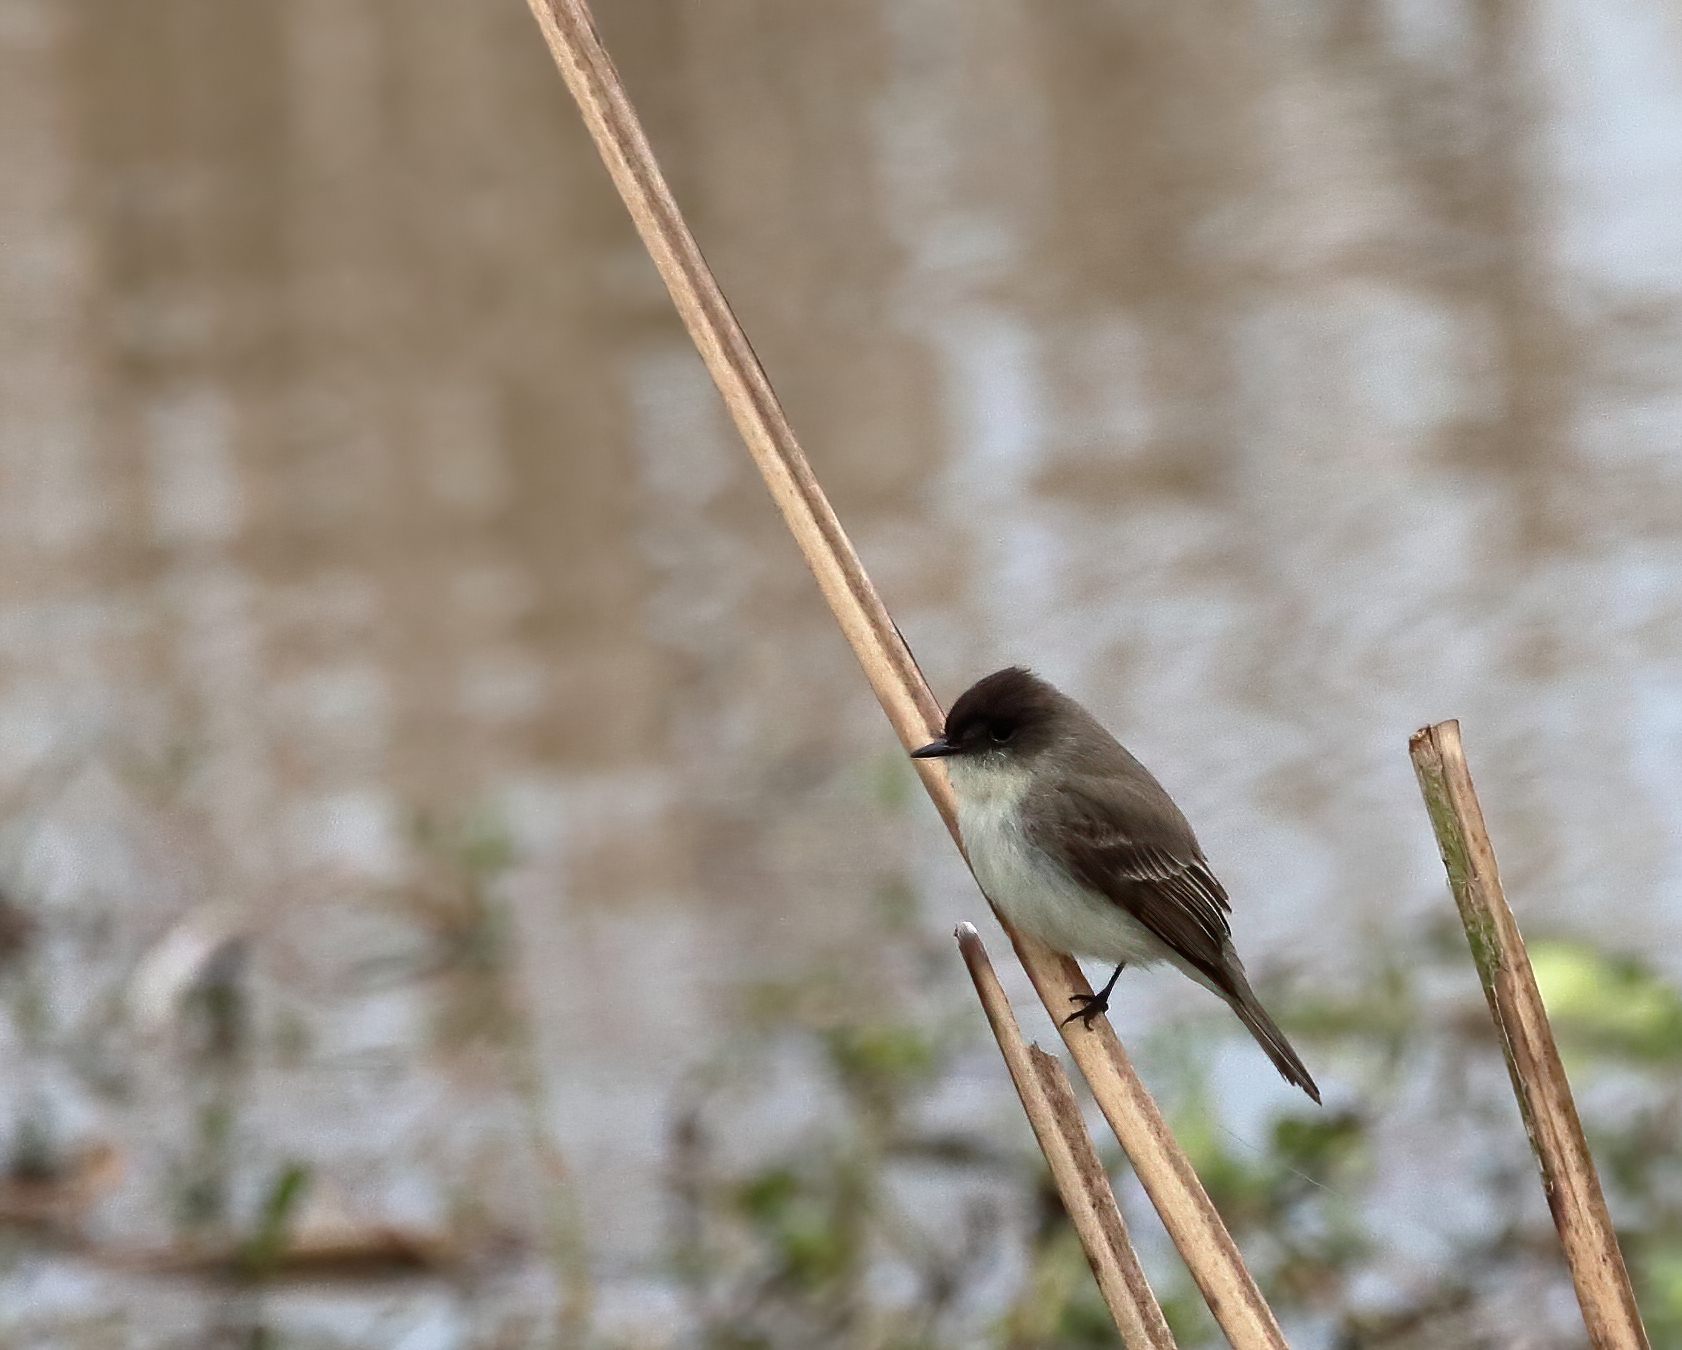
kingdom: Animalia
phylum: Chordata
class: Aves
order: Passeriformes
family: Tyrannidae
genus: Sayornis
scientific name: Sayornis phoebe
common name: Eastern phoebe
